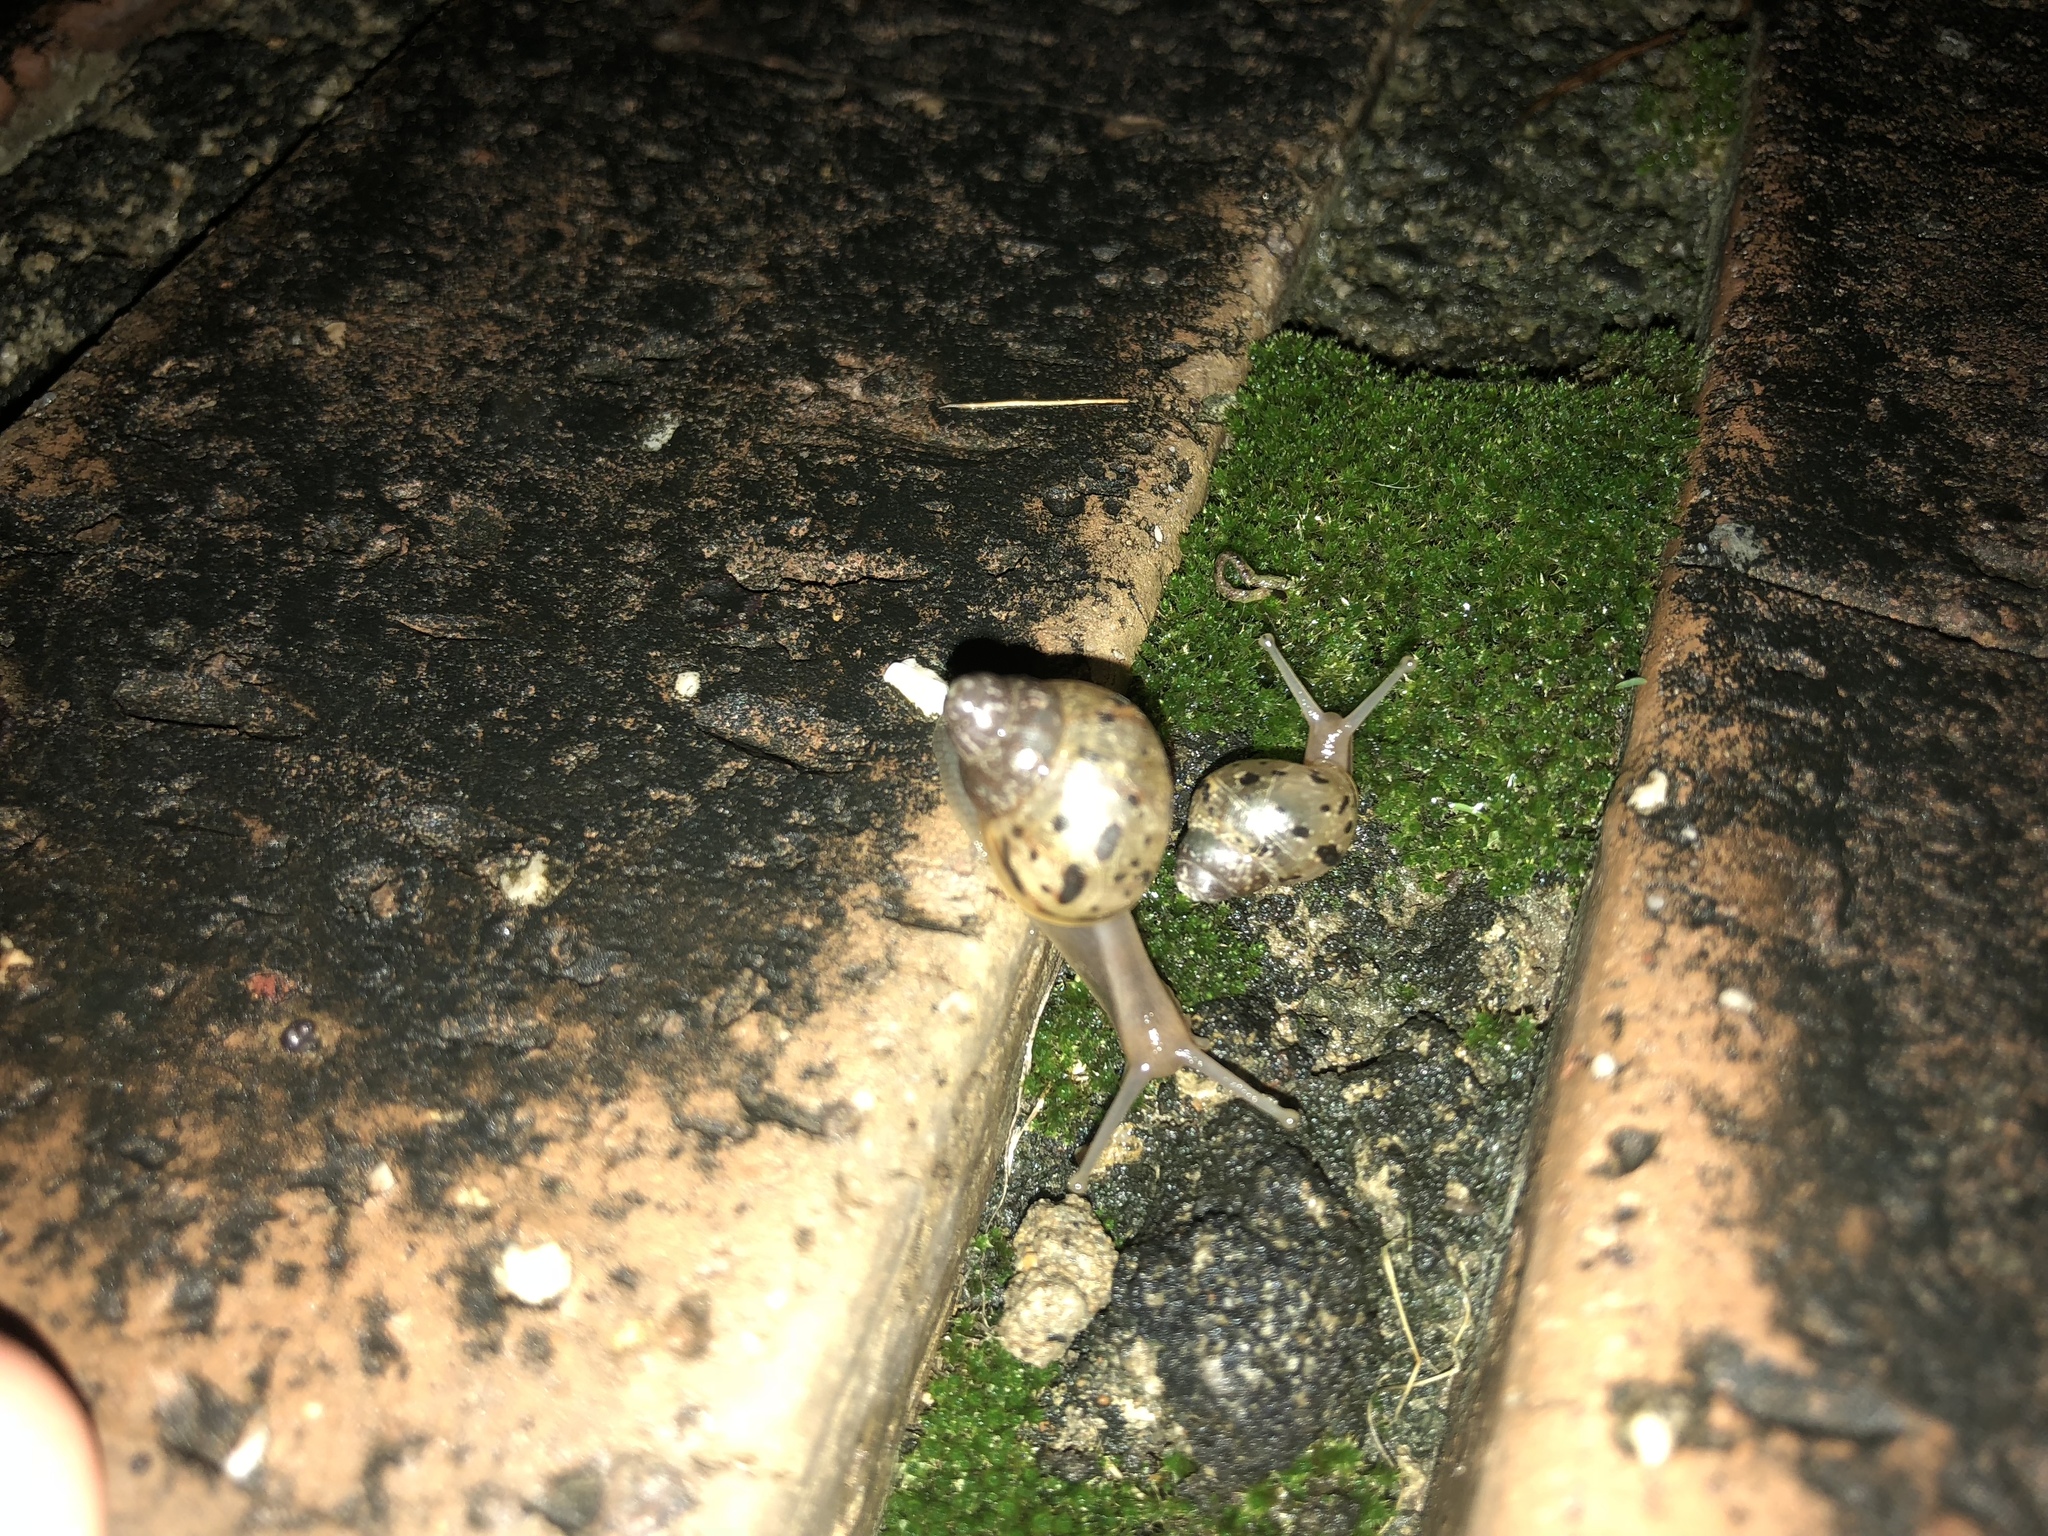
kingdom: Animalia
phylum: Mollusca
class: Gastropoda
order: Stylommatophora
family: Achatinidae
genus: Lissachatina
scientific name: Lissachatina fulica
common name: Giant african snail
